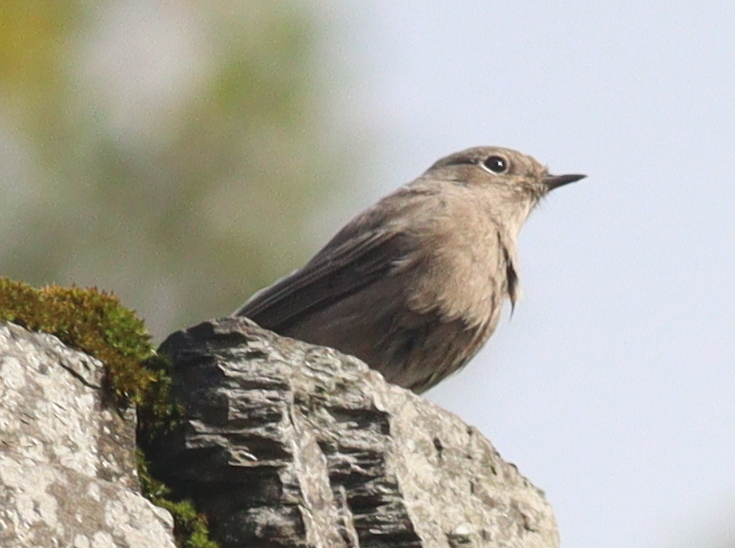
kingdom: Animalia
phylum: Chordata
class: Aves
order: Passeriformes
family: Muscicapidae
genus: Phoenicurus
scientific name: Phoenicurus ochruros
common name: Black redstart
